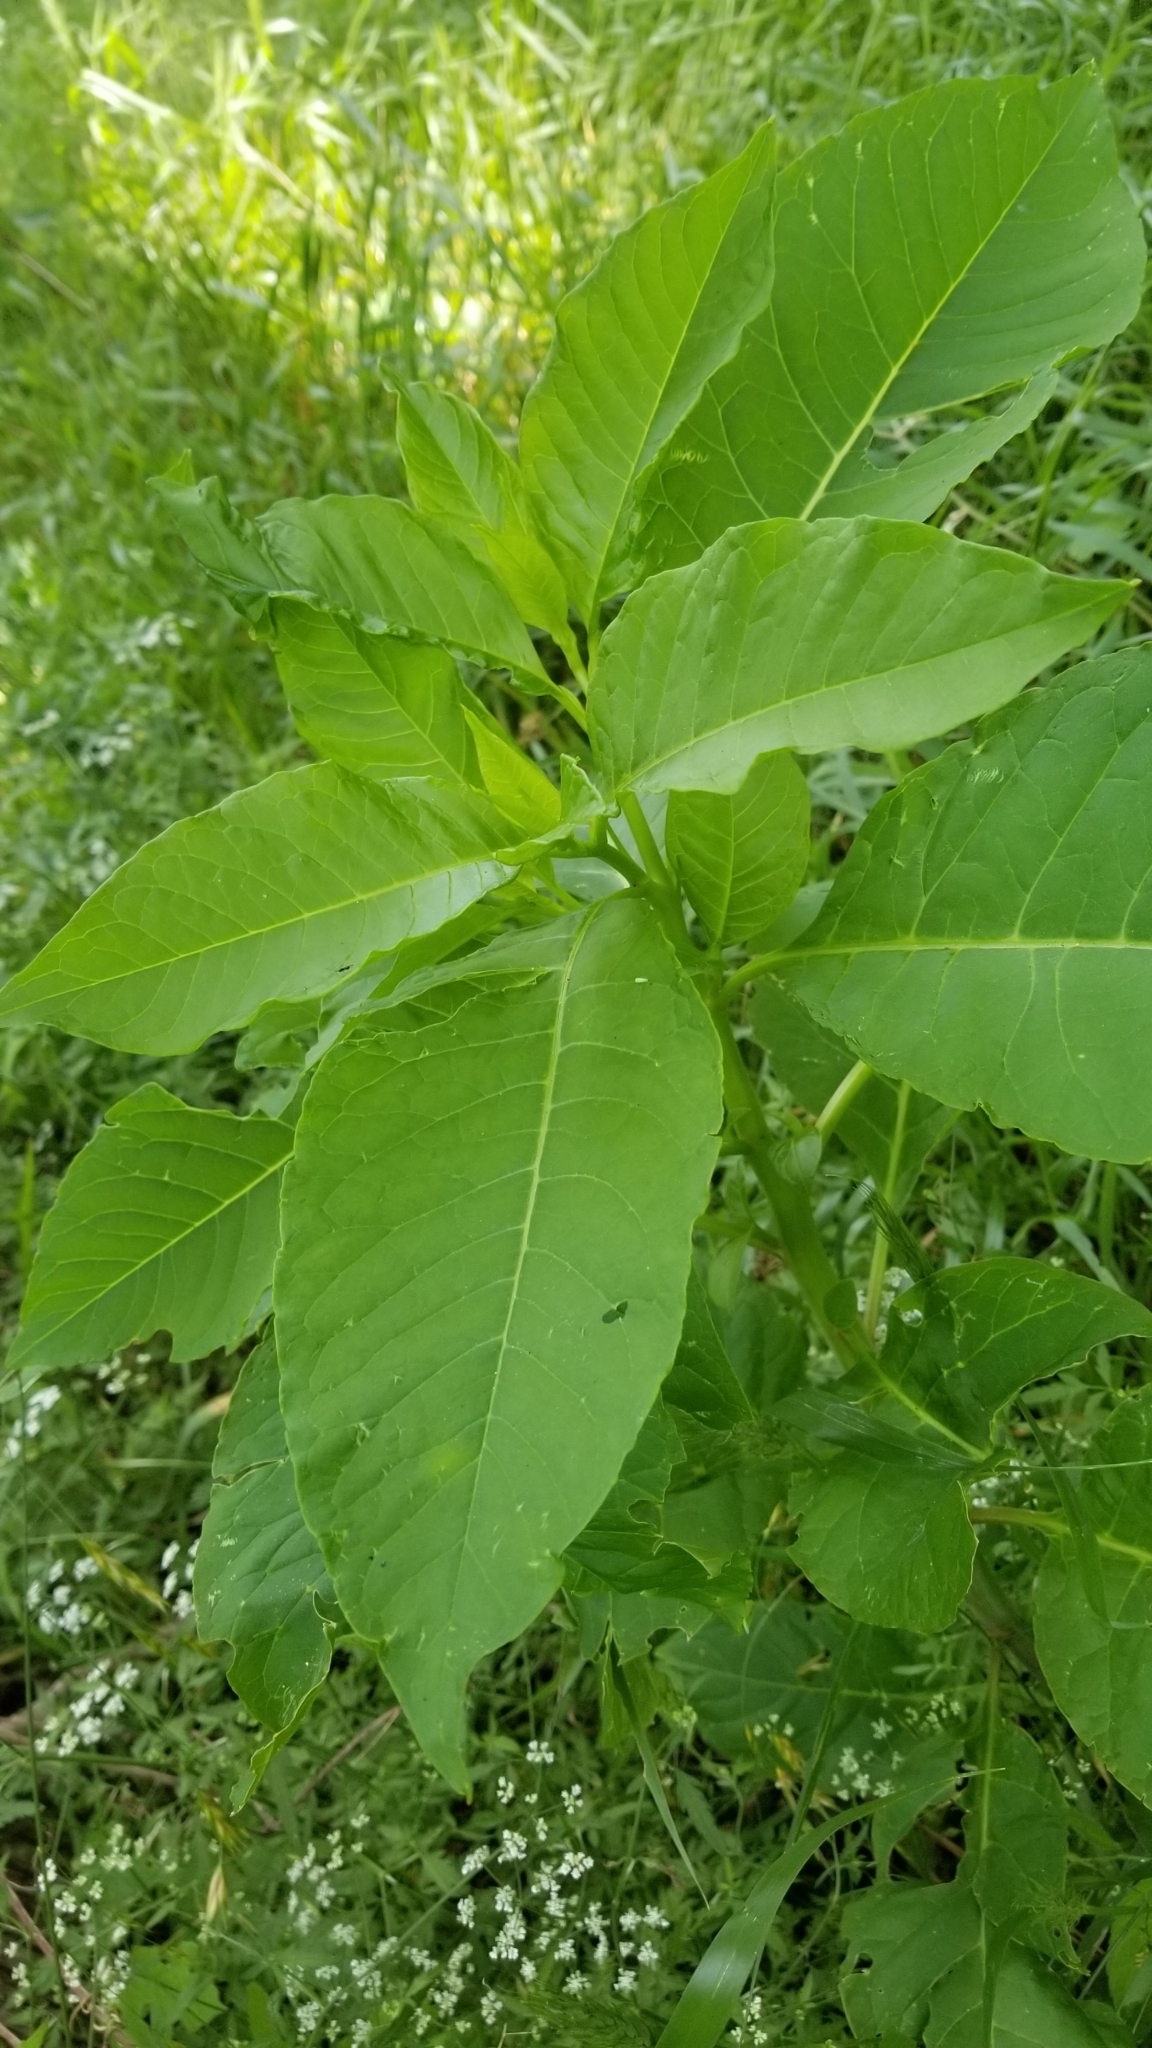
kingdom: Plantae
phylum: Tracheophyta
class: Magnoliopsida
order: Caryophyllales
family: Phytolaccaceae
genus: Phytolacca
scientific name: Phytolacca americana
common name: American pokeweed
